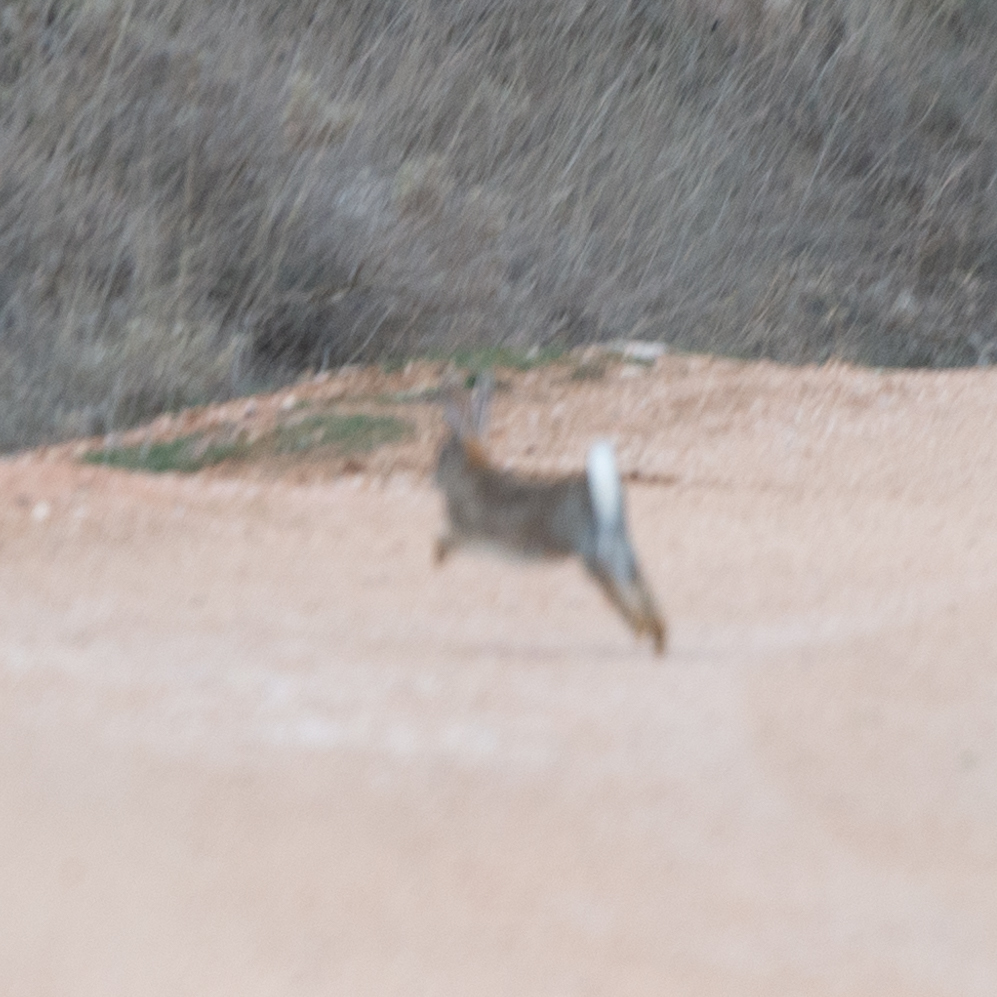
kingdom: Animalia
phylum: Chordata
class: Mammalia
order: Lagomorpha
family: Leporidae
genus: Oryctolagus
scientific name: Oryctolagus cuniculus
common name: European rabbit
